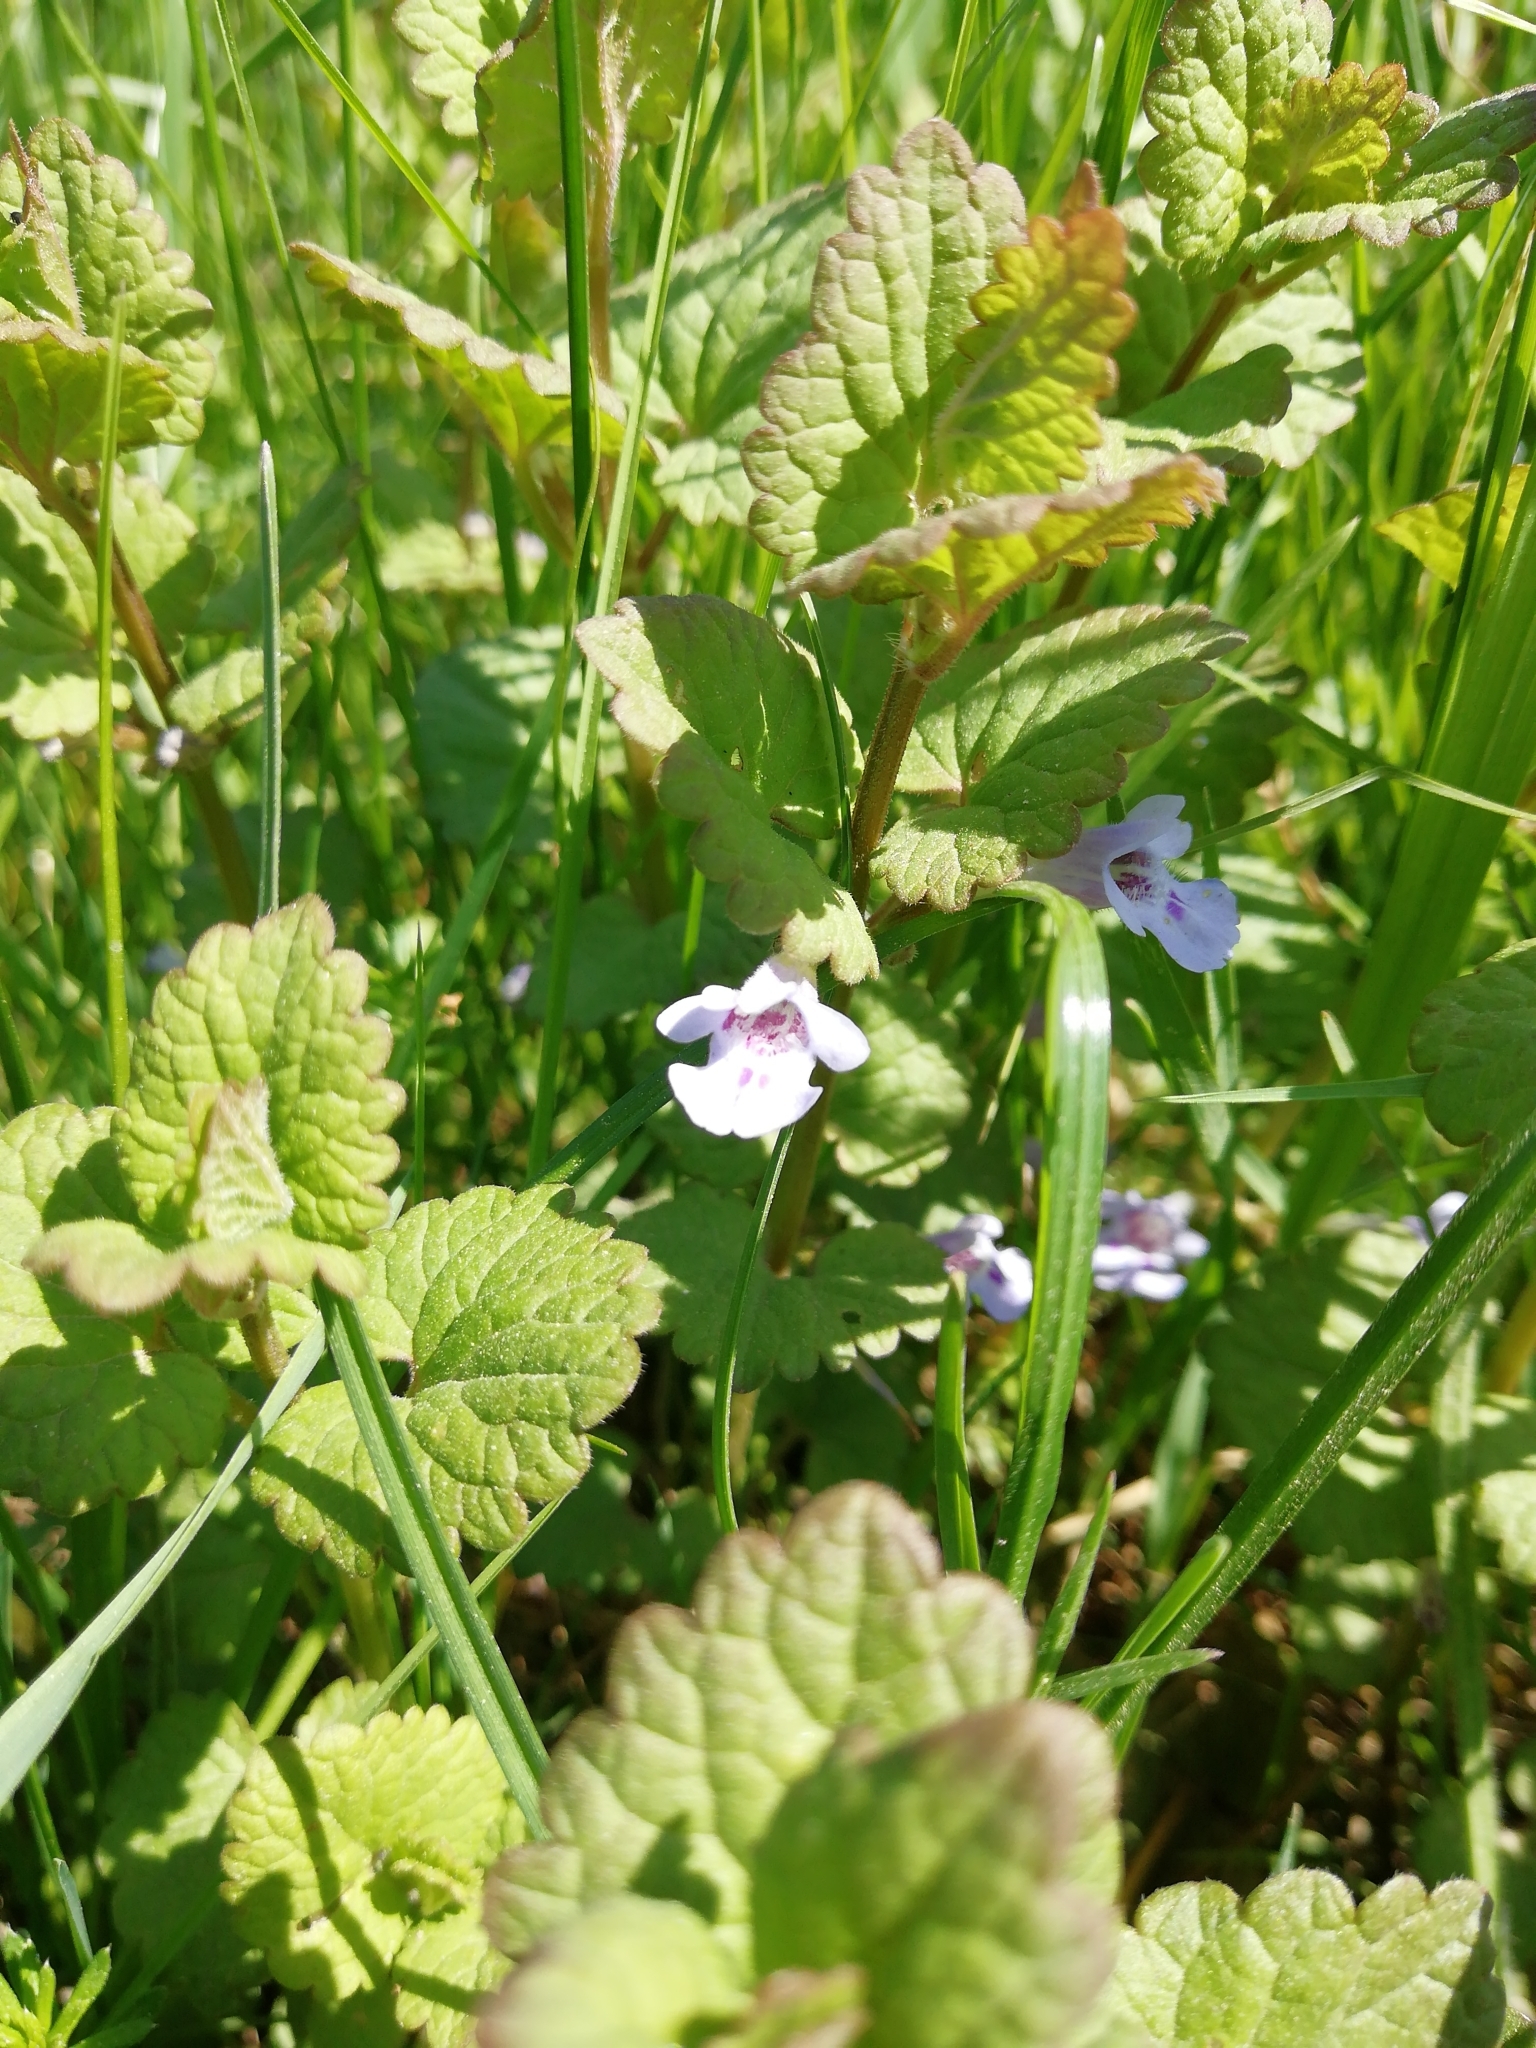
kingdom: Plantae
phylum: Tracheophyta
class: Magnoliopsida
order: Lamiales
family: Lamiaceae
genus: Glechoma
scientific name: Glechoma hederacea
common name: Ground ivy
